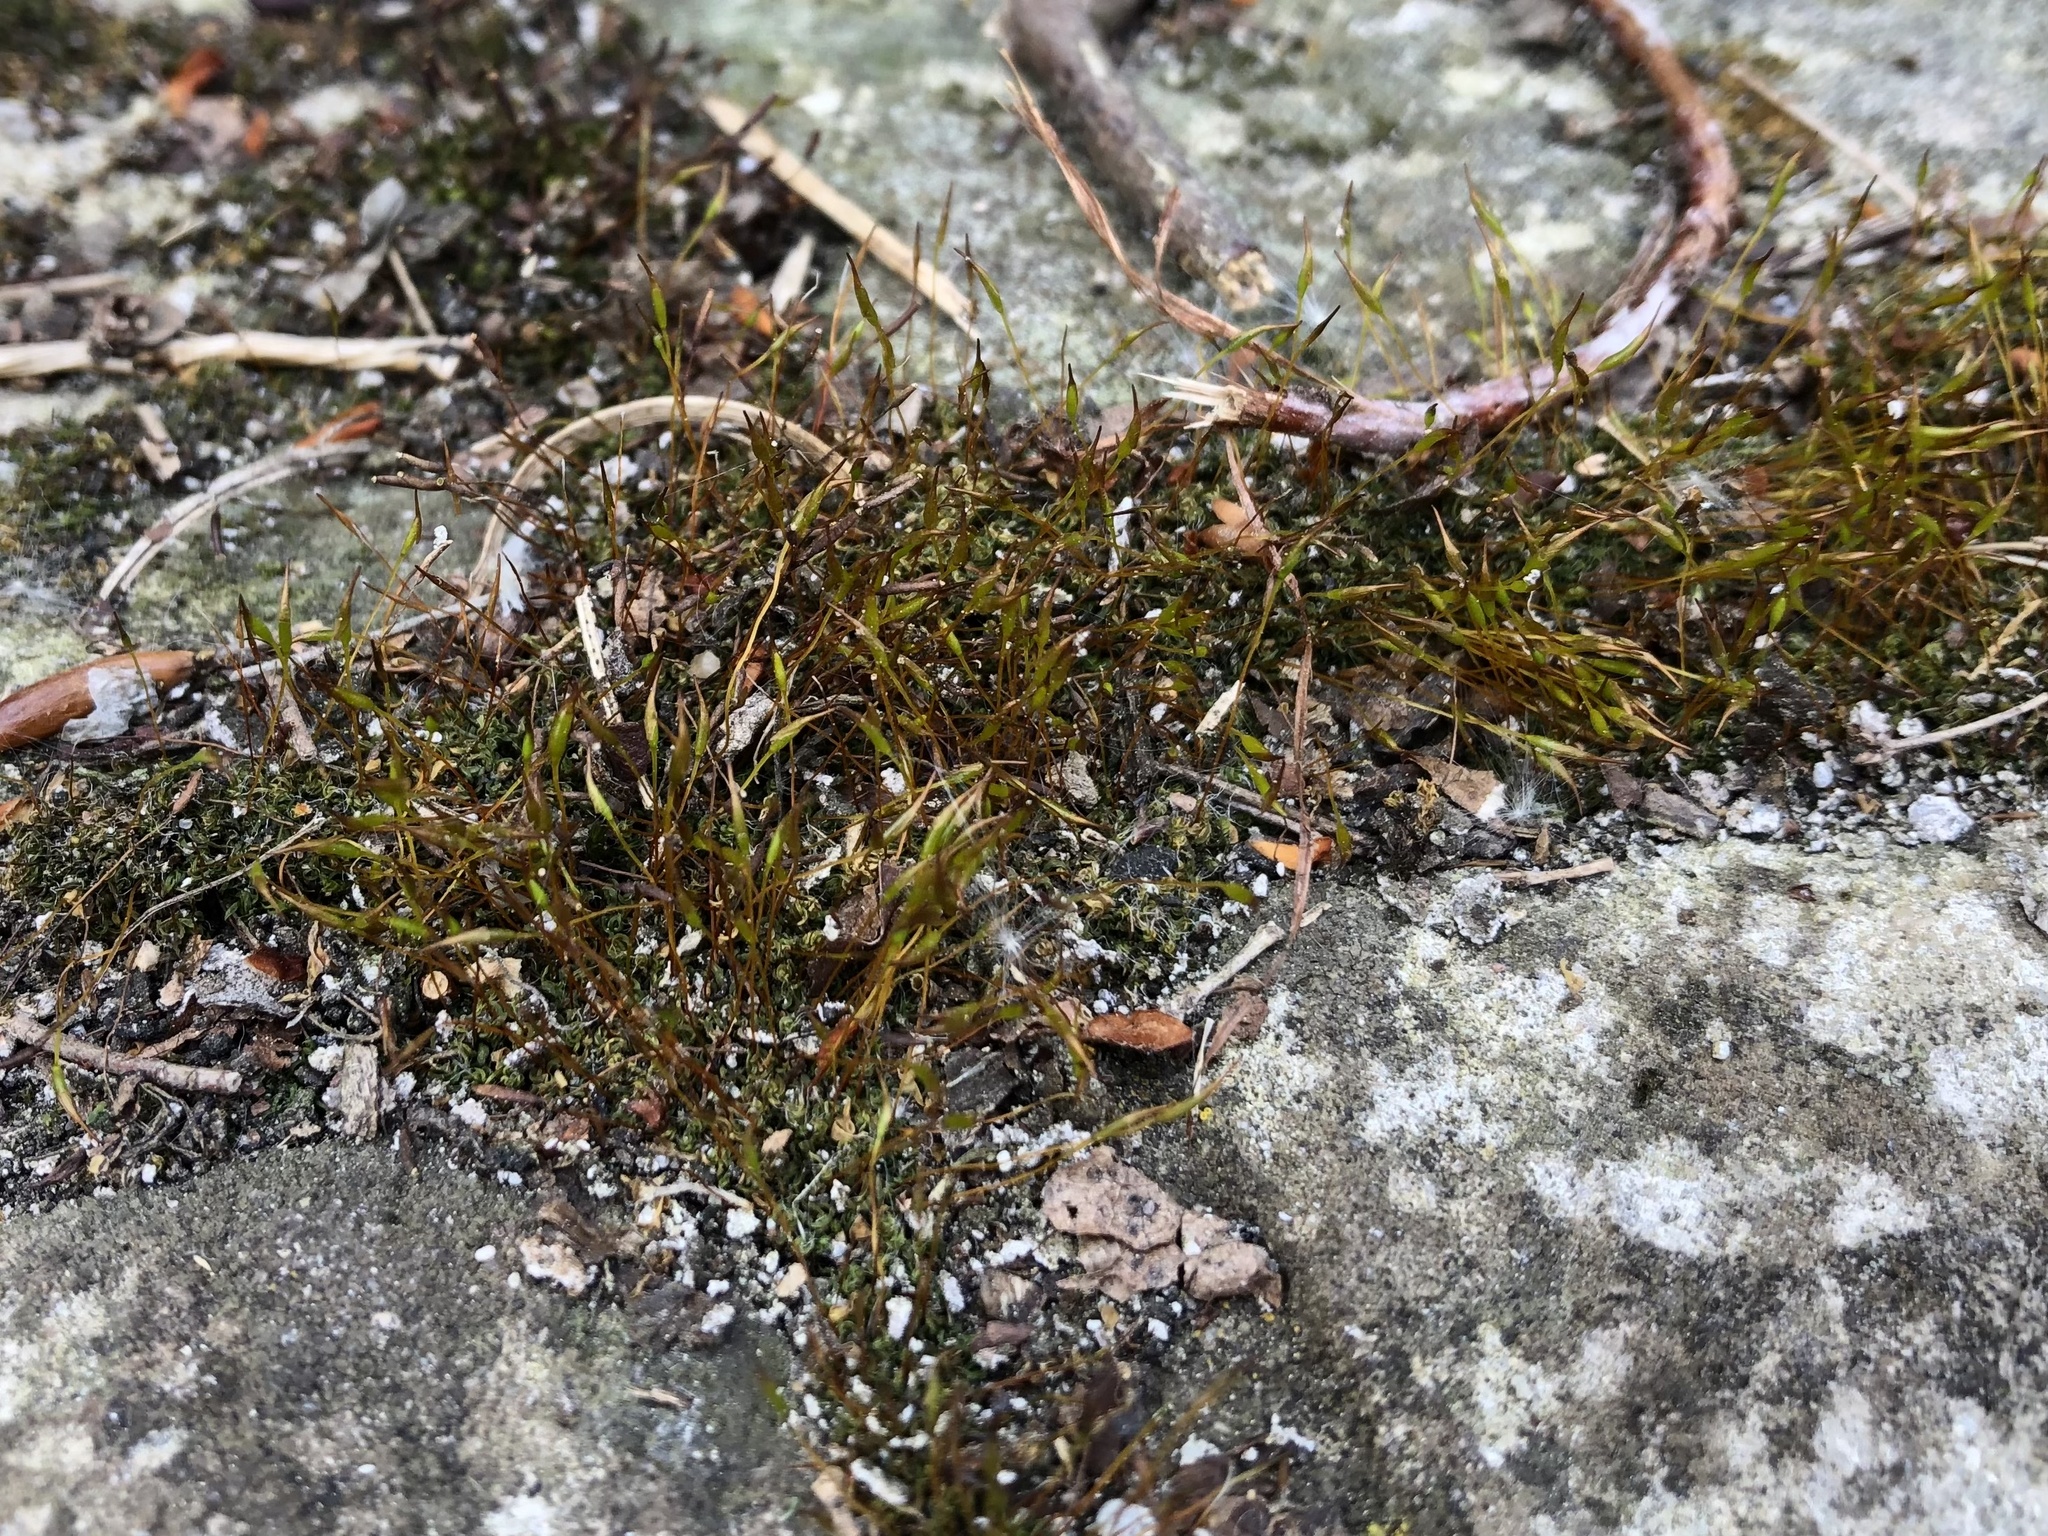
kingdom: Plantae
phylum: Bryophyta
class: Bryopsida
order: Pottiales
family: Pottiaceae
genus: Tortula
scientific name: Tortula muralis
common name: Wall screw-moss
